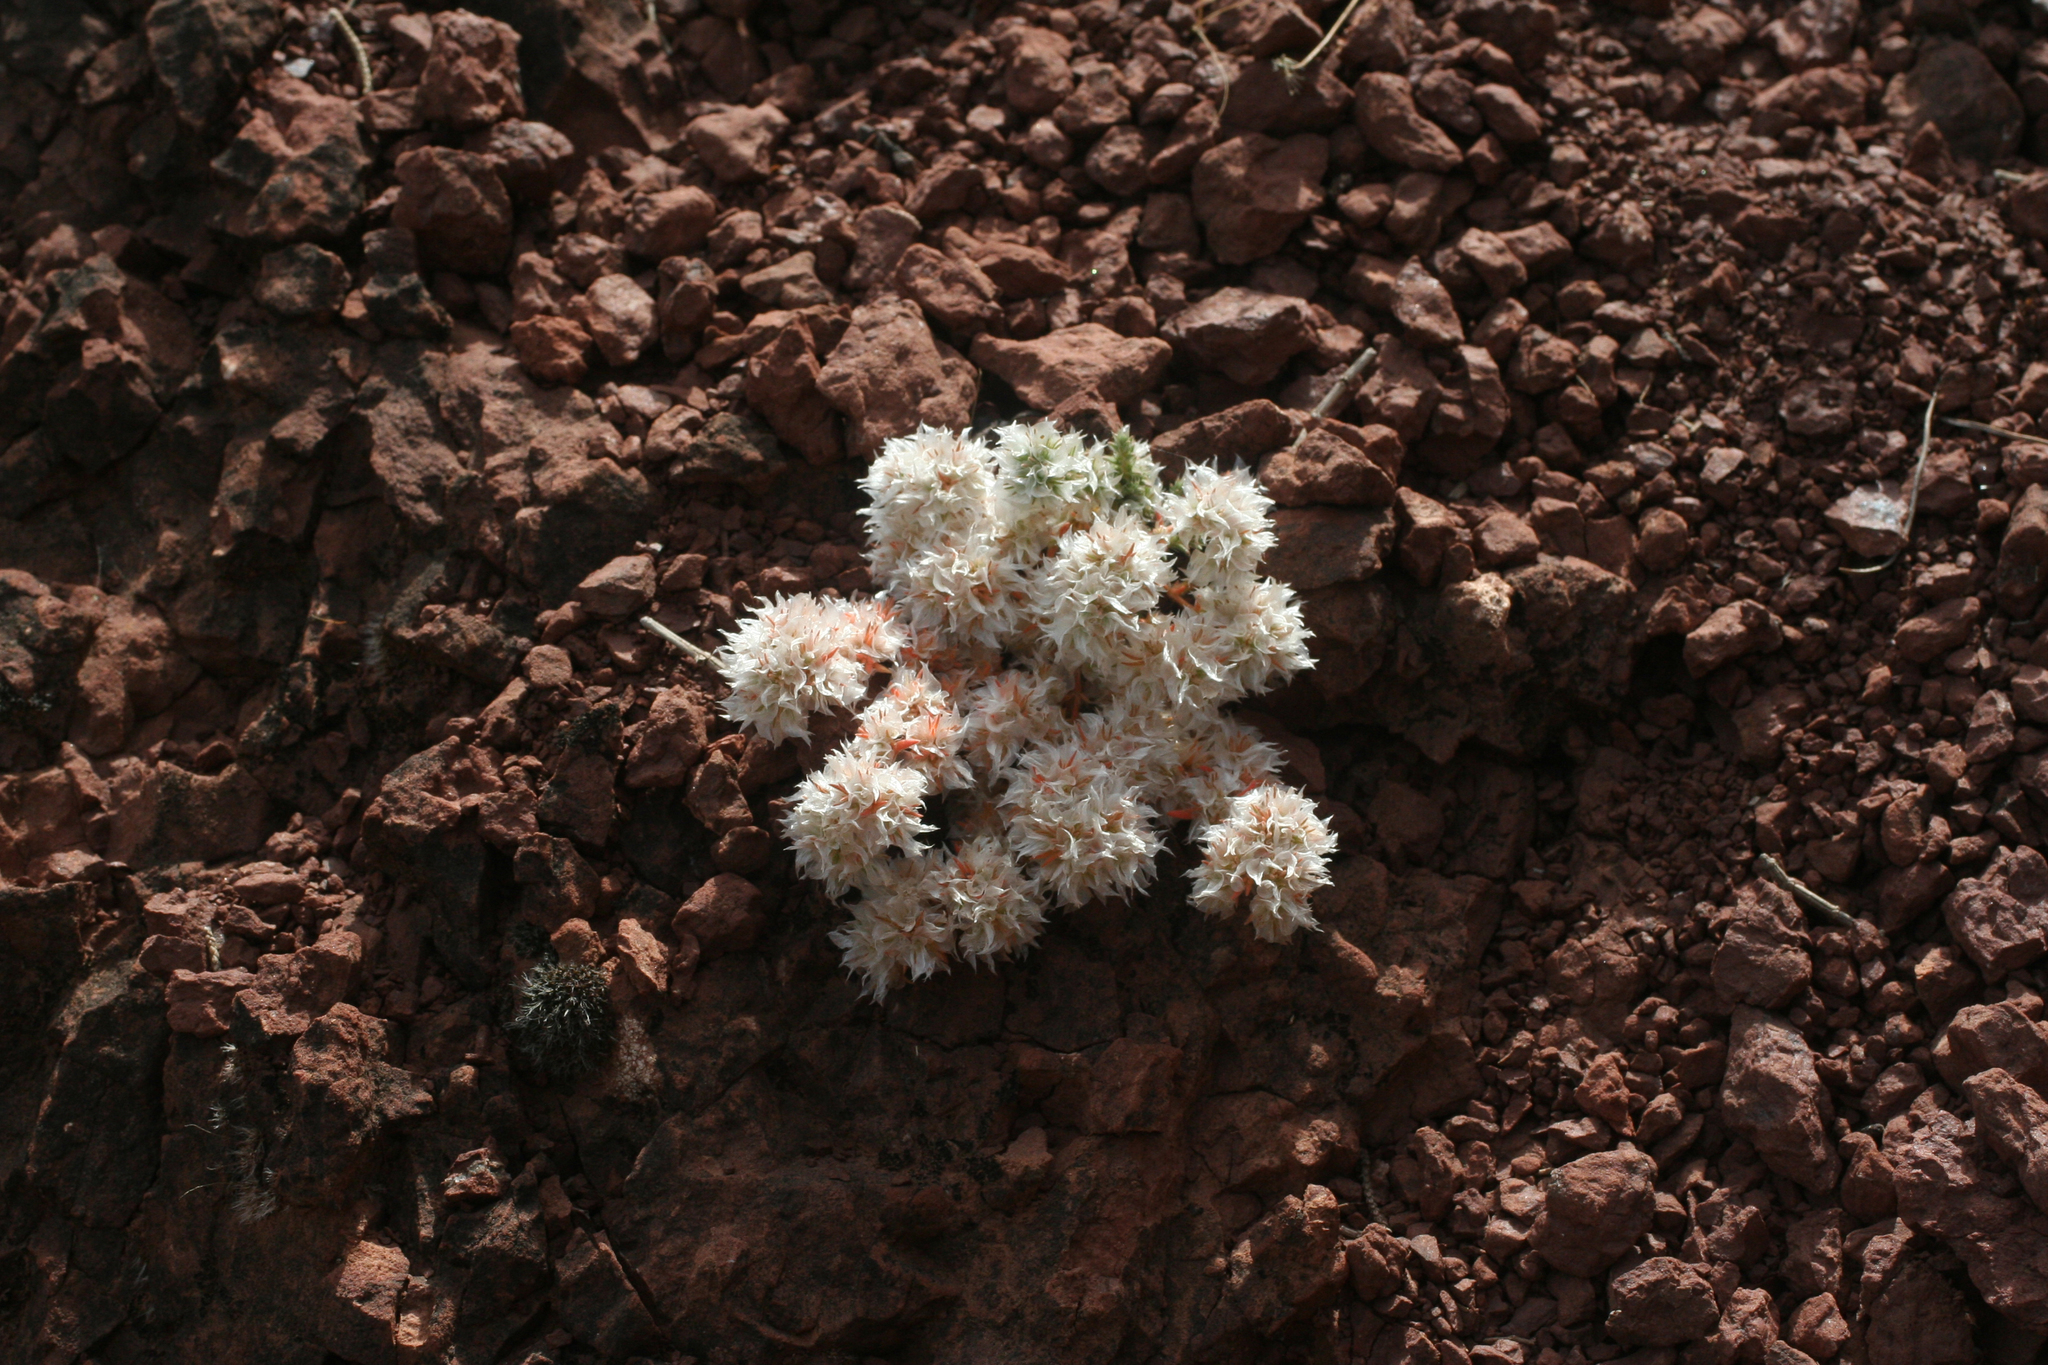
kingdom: Plantae
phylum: Tracheophyta
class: Magnoliopsida
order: Caryophyllales
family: Caryophyllaceae
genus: Paronychia
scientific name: Paronychia argentea
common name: Silver nailroot
